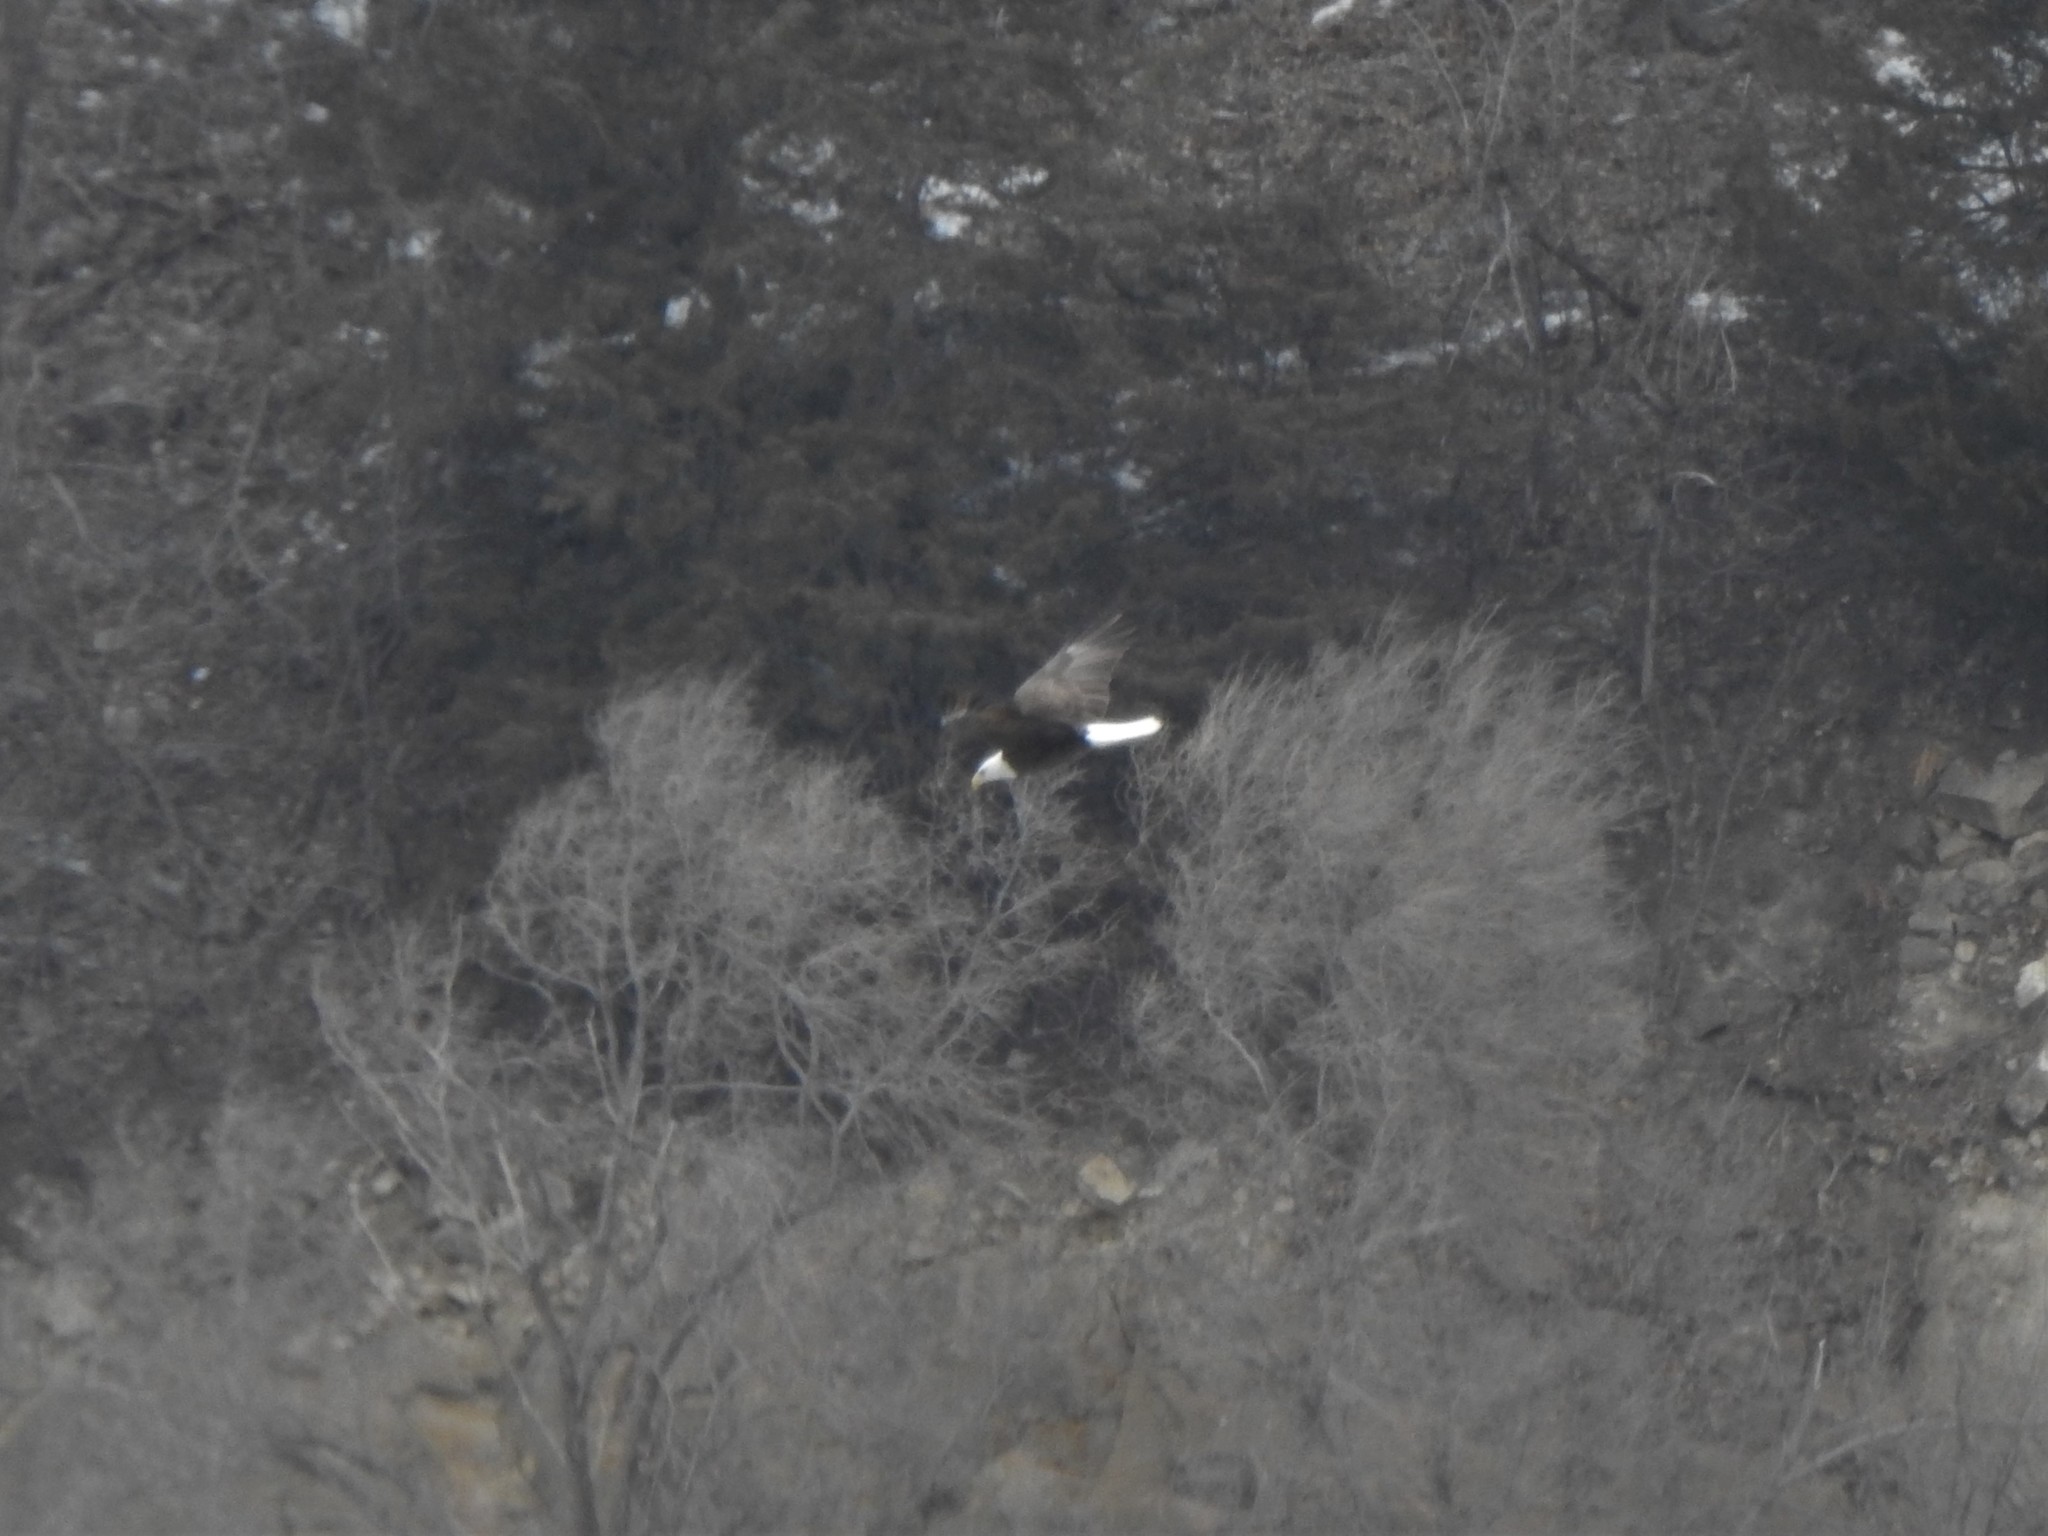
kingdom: Animalia
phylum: Chordata
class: Aves
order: Accipitriformes
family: Accipitridae
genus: Haliaeetus
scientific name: Haliaeetus leucocephalus
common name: Bald eagle
